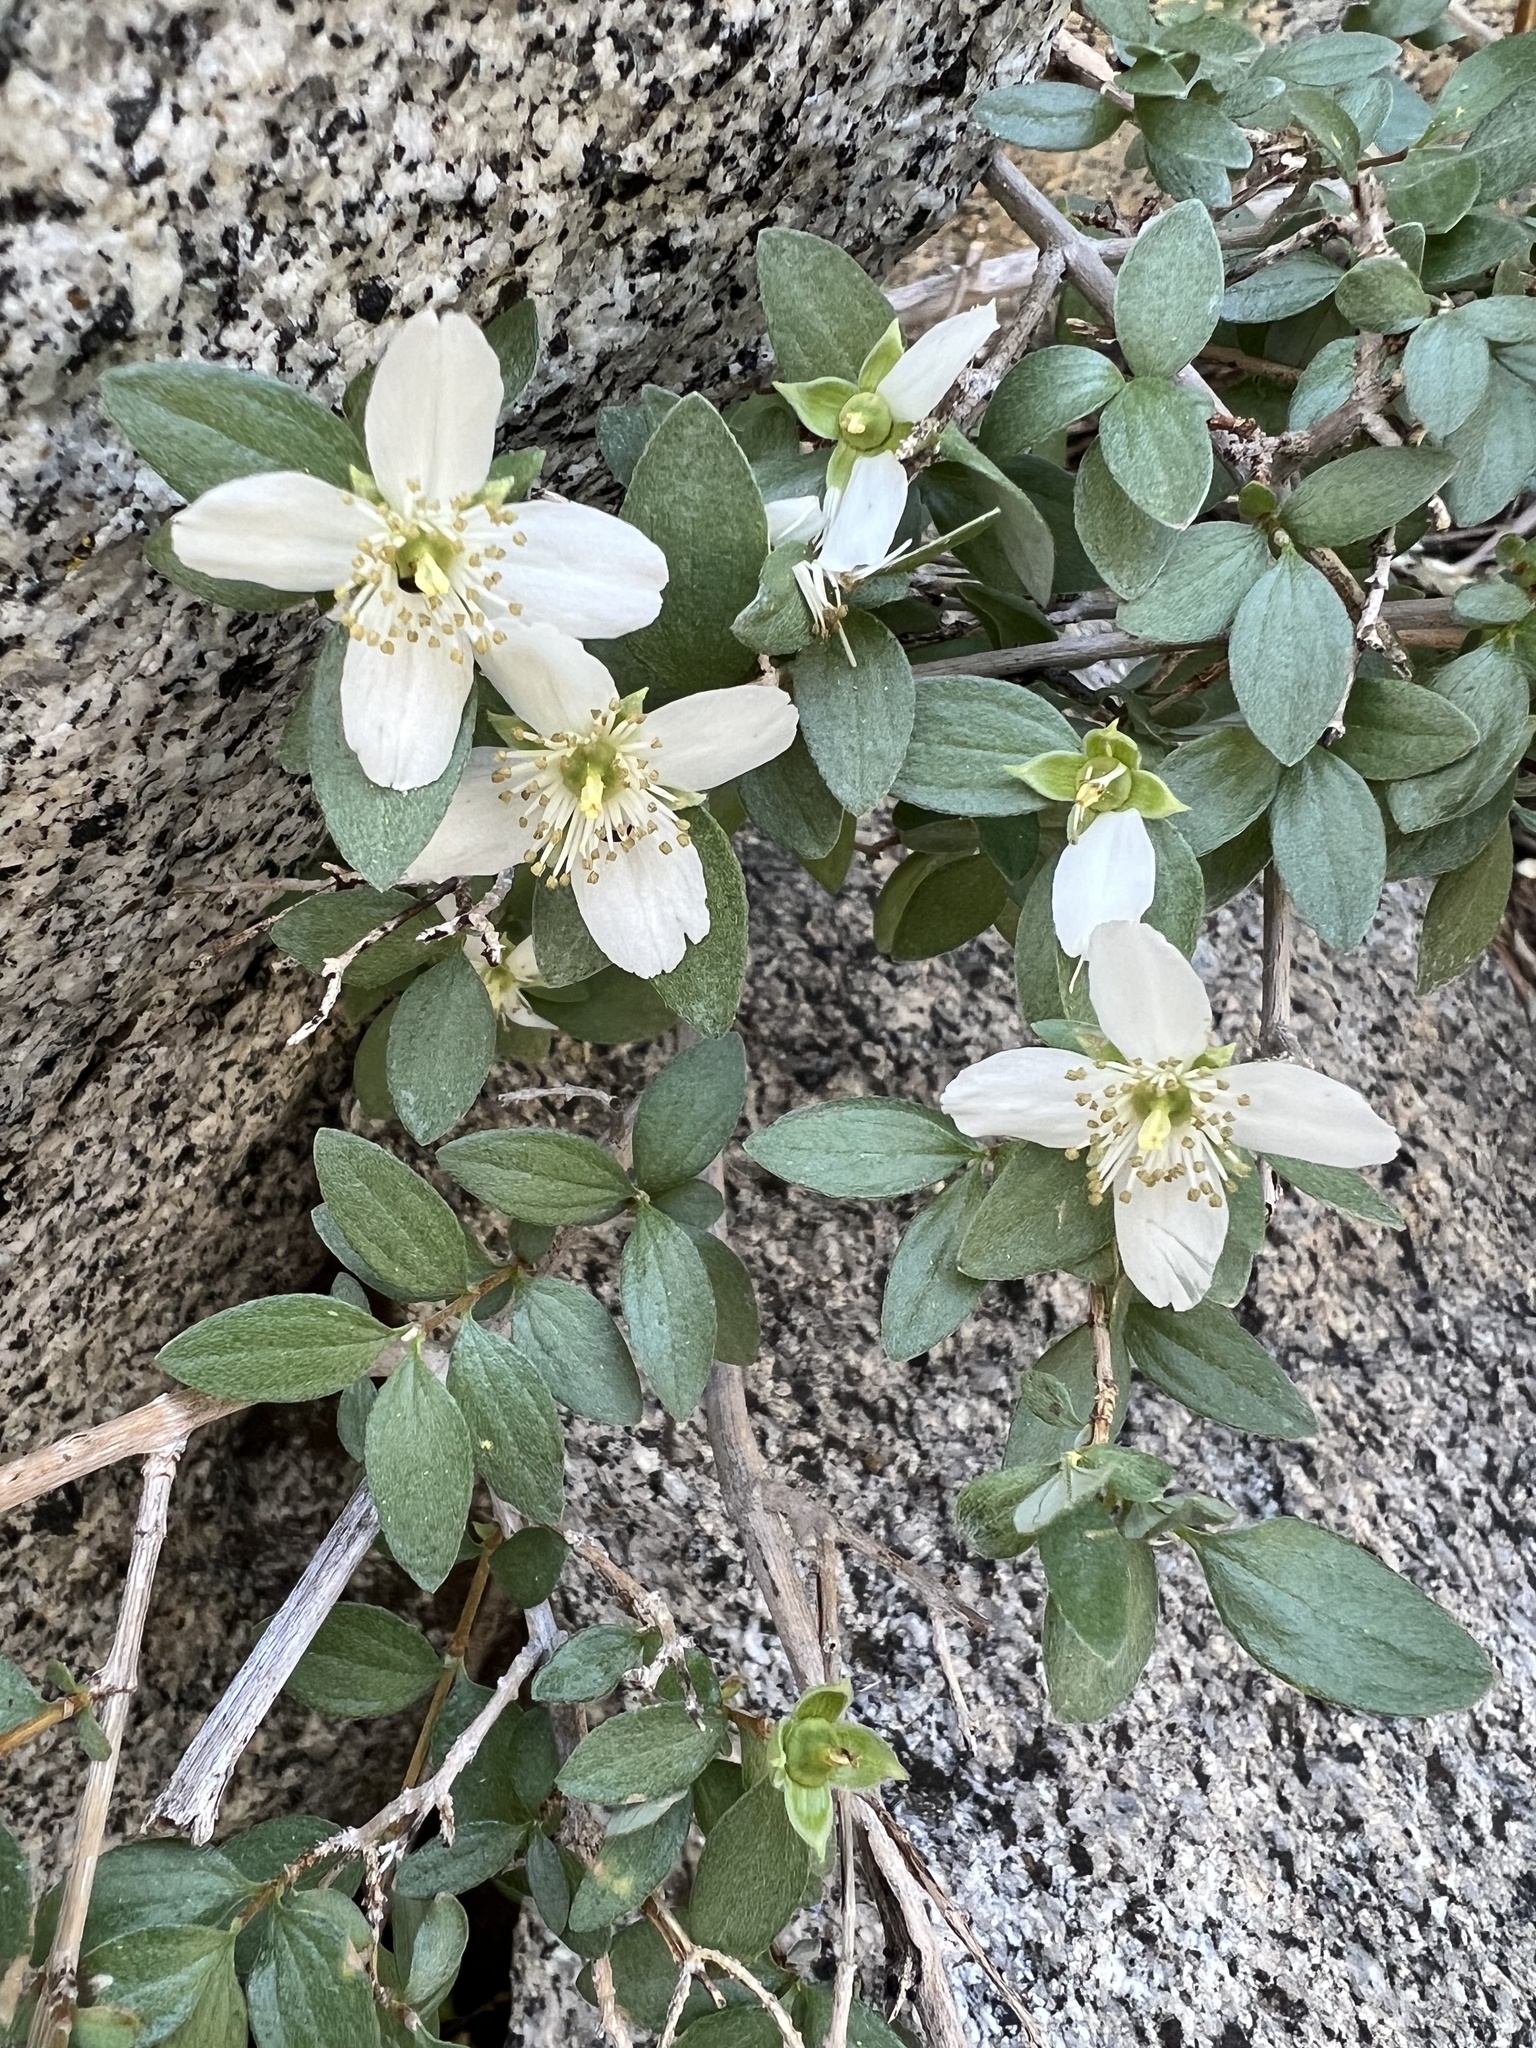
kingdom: Plantae
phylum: Tracheophyta
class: Magnoliopsida
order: Cornales
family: Hydrangeaceae
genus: Philadelphus
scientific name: Philadelphus microphyllus
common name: Desert mock orange
